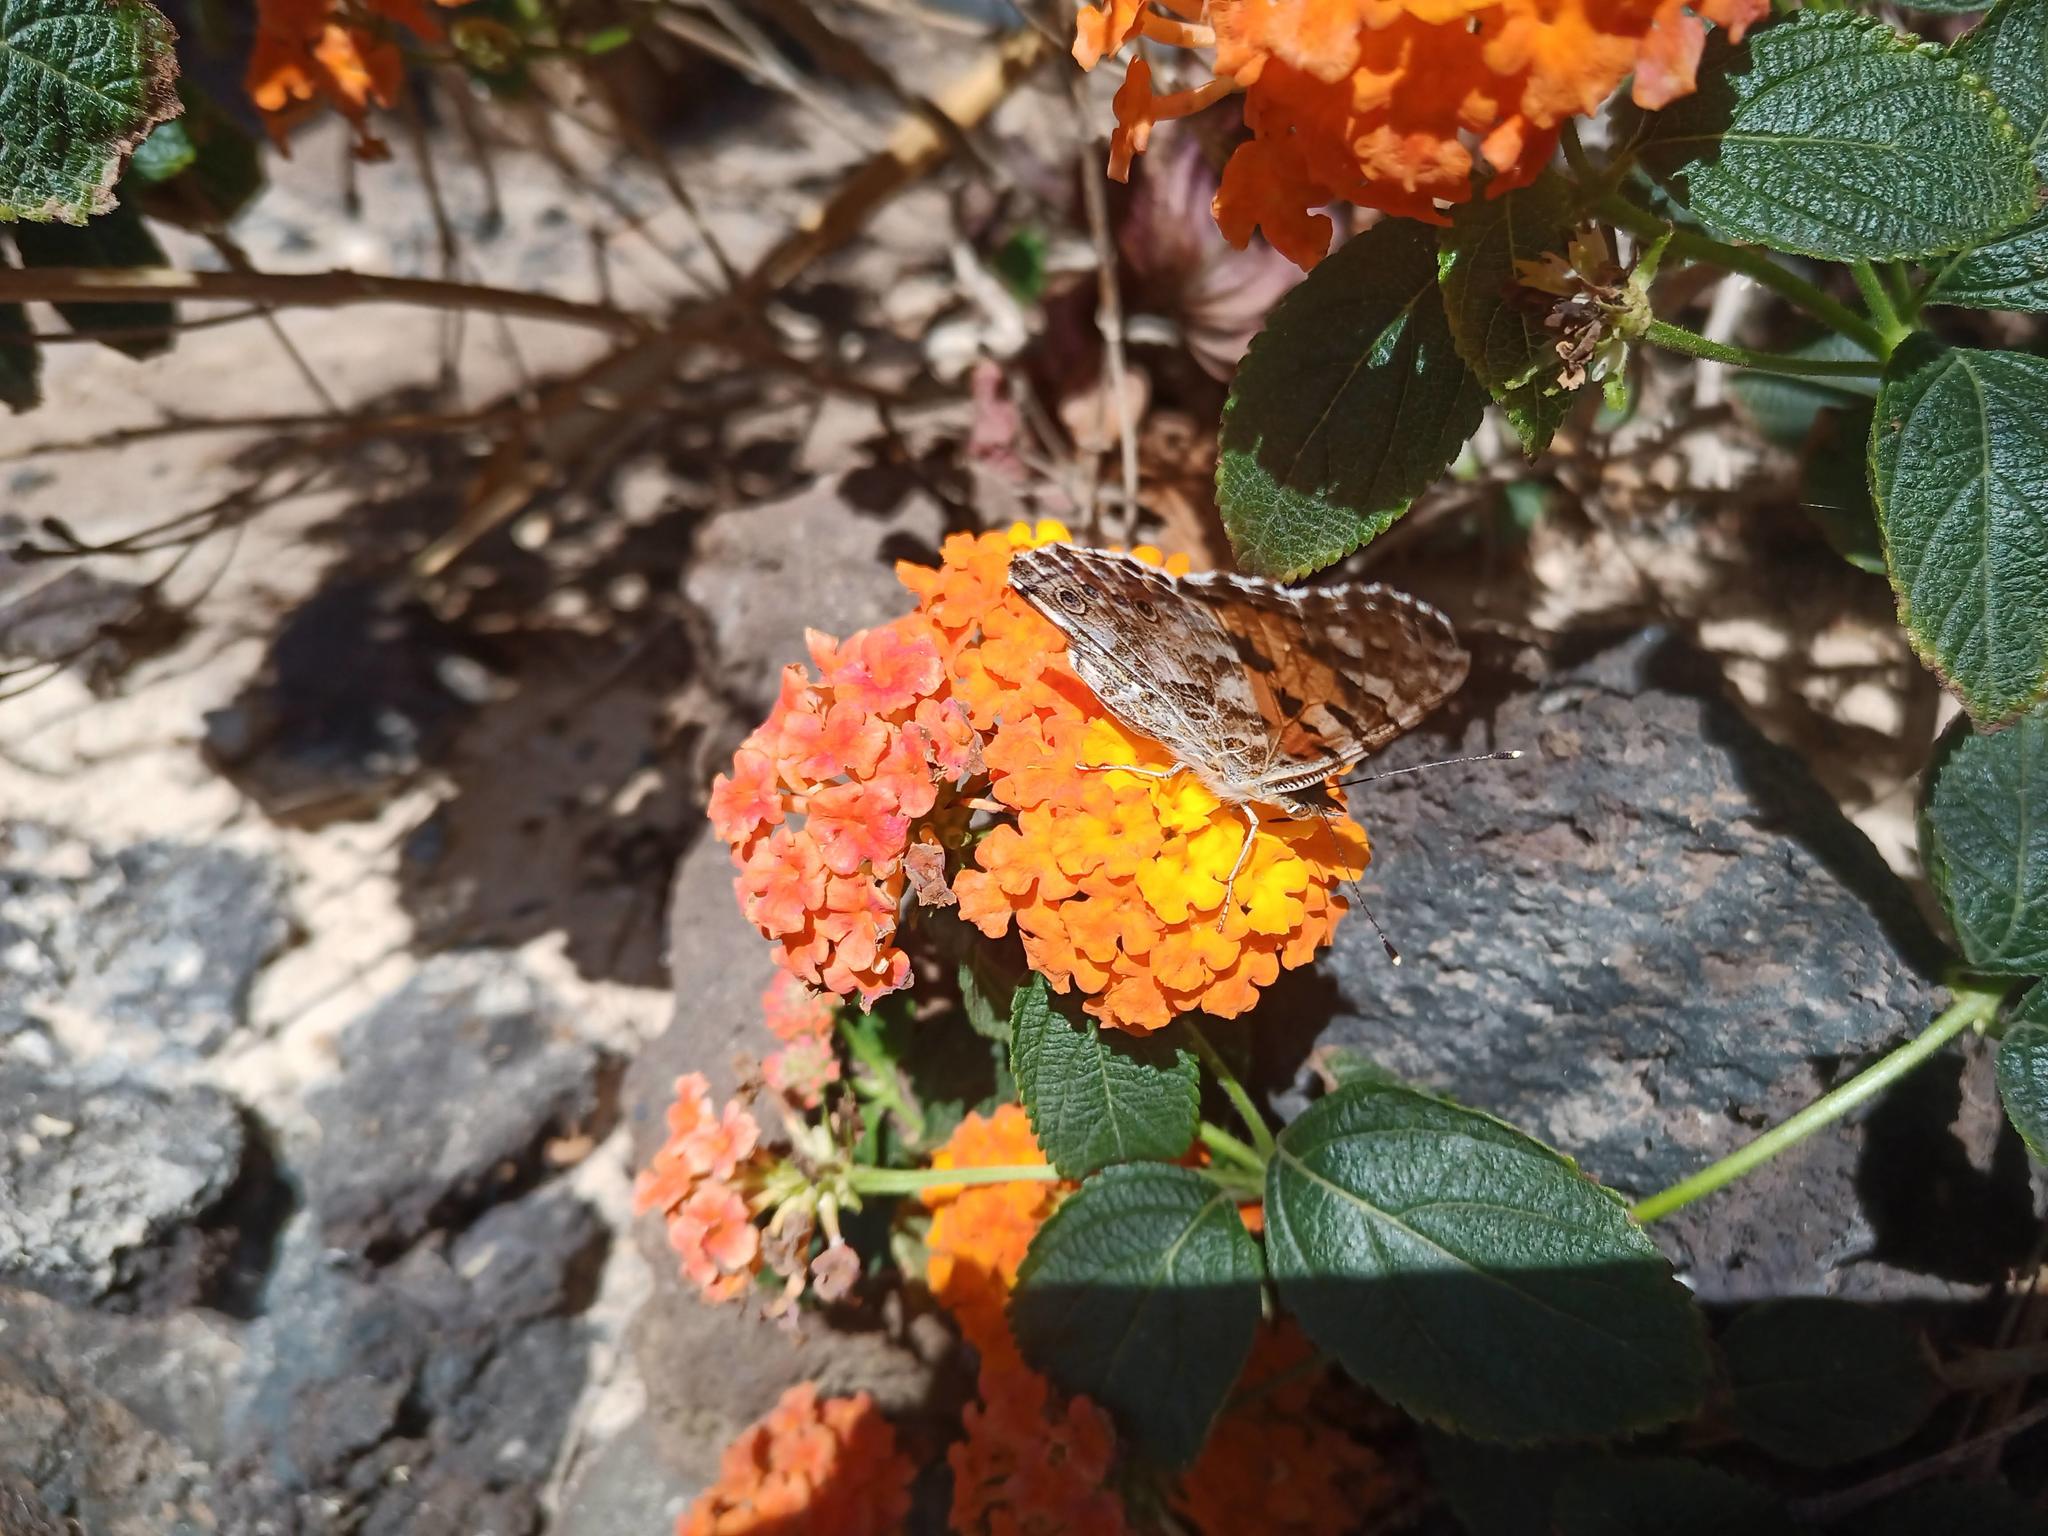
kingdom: Animalia
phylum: Arthropoda
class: Insecta
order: Lepidoptera
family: Nymphalidae
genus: Vanessa
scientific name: Vanessa cardui
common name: Painted lady
